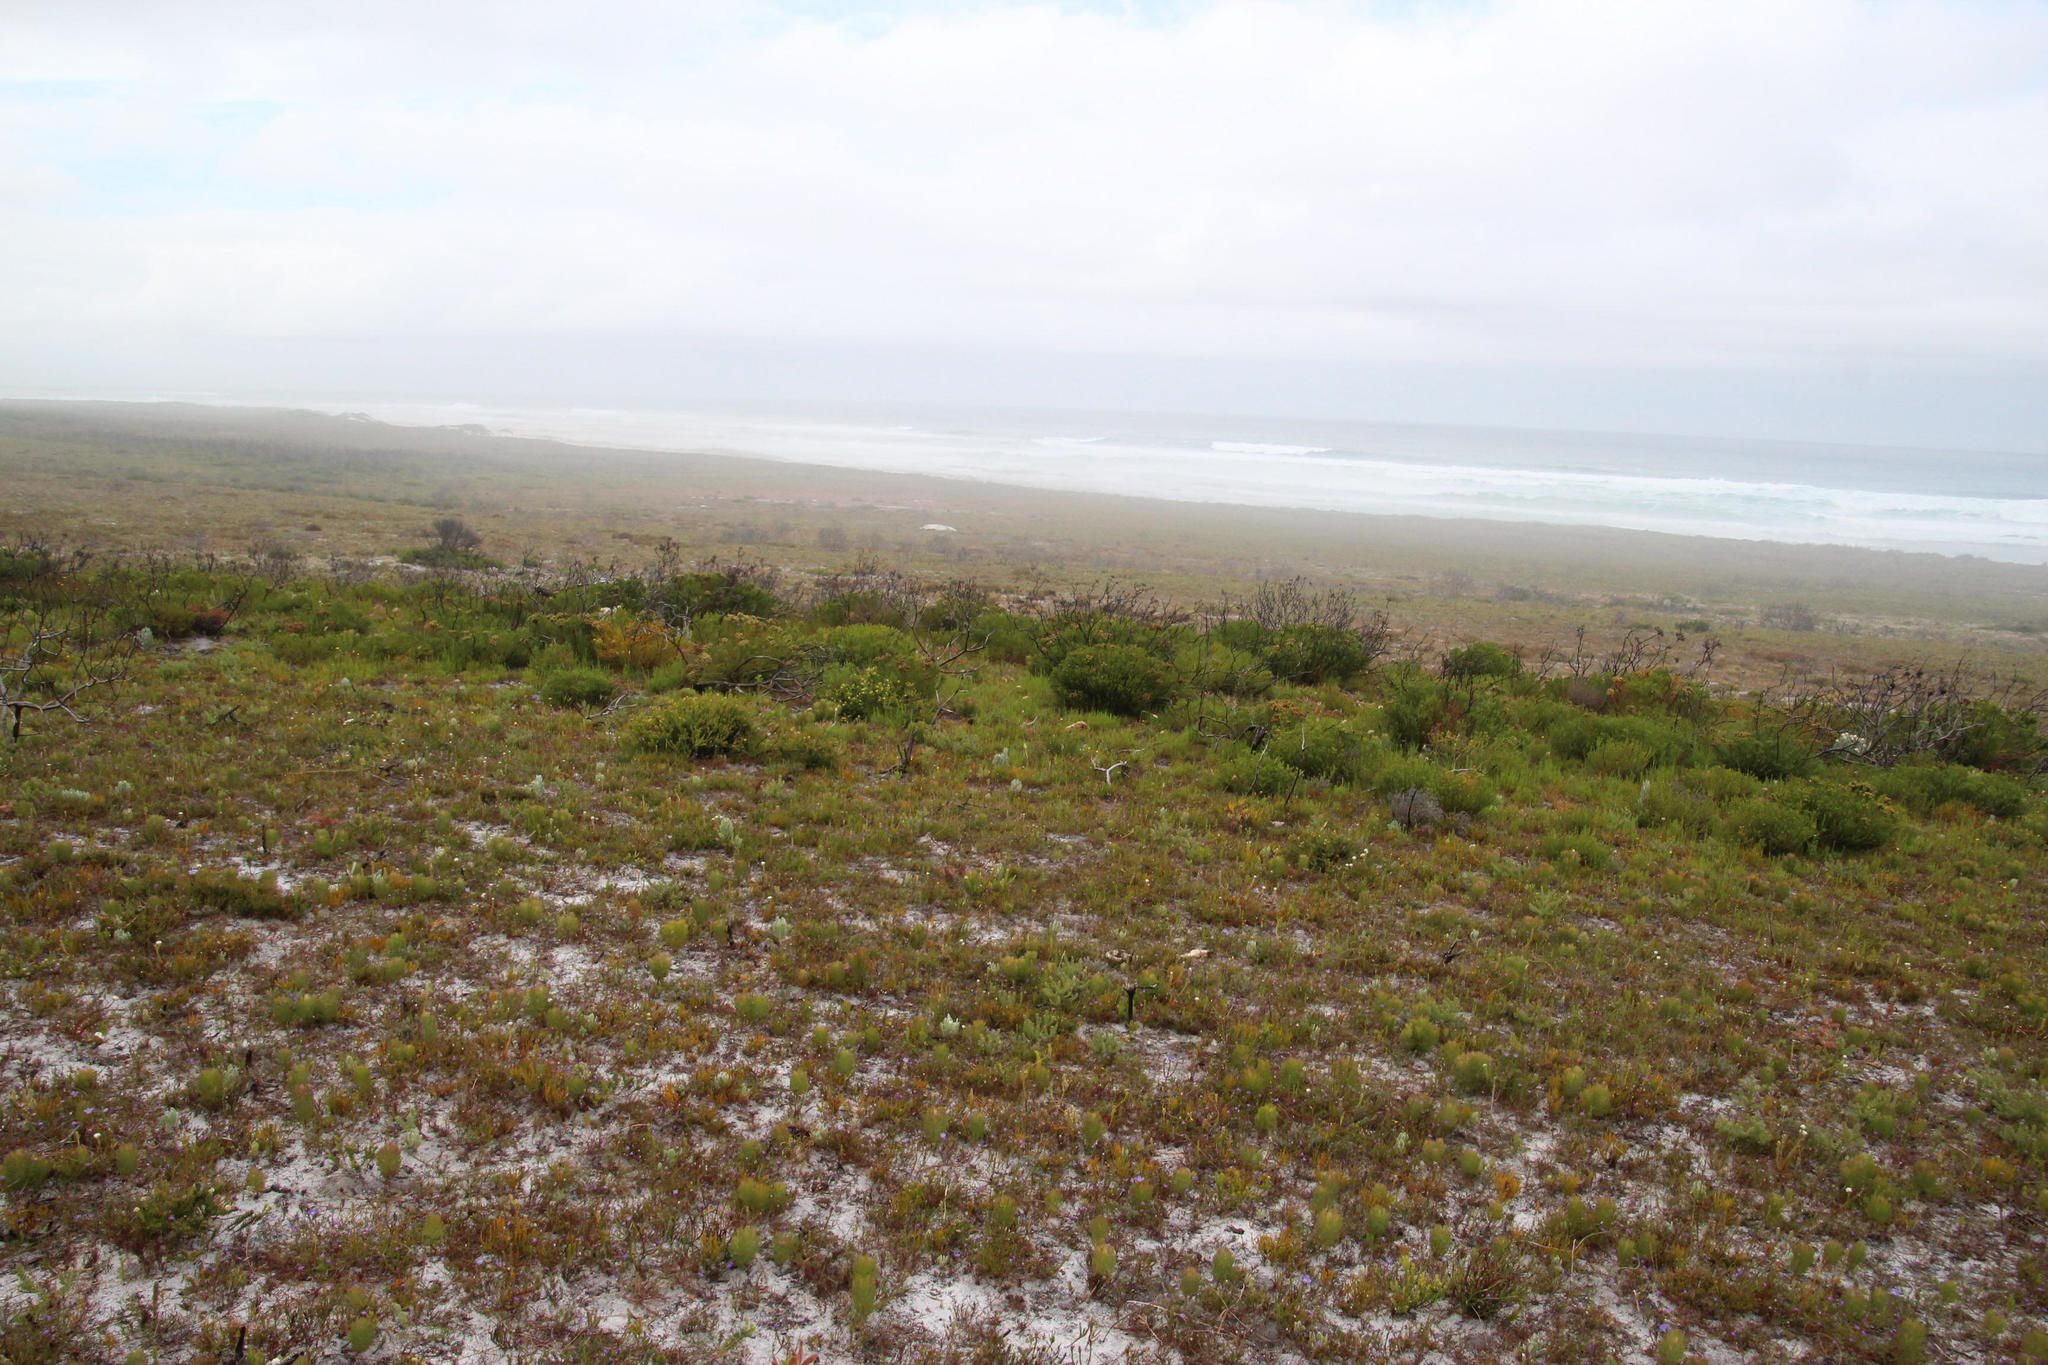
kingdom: Plantae
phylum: Tracheophyta
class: Magnoliopsida
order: Bruniales
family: Bruniaceae
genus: Berzelia
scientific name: Berzelia abrotanoides
